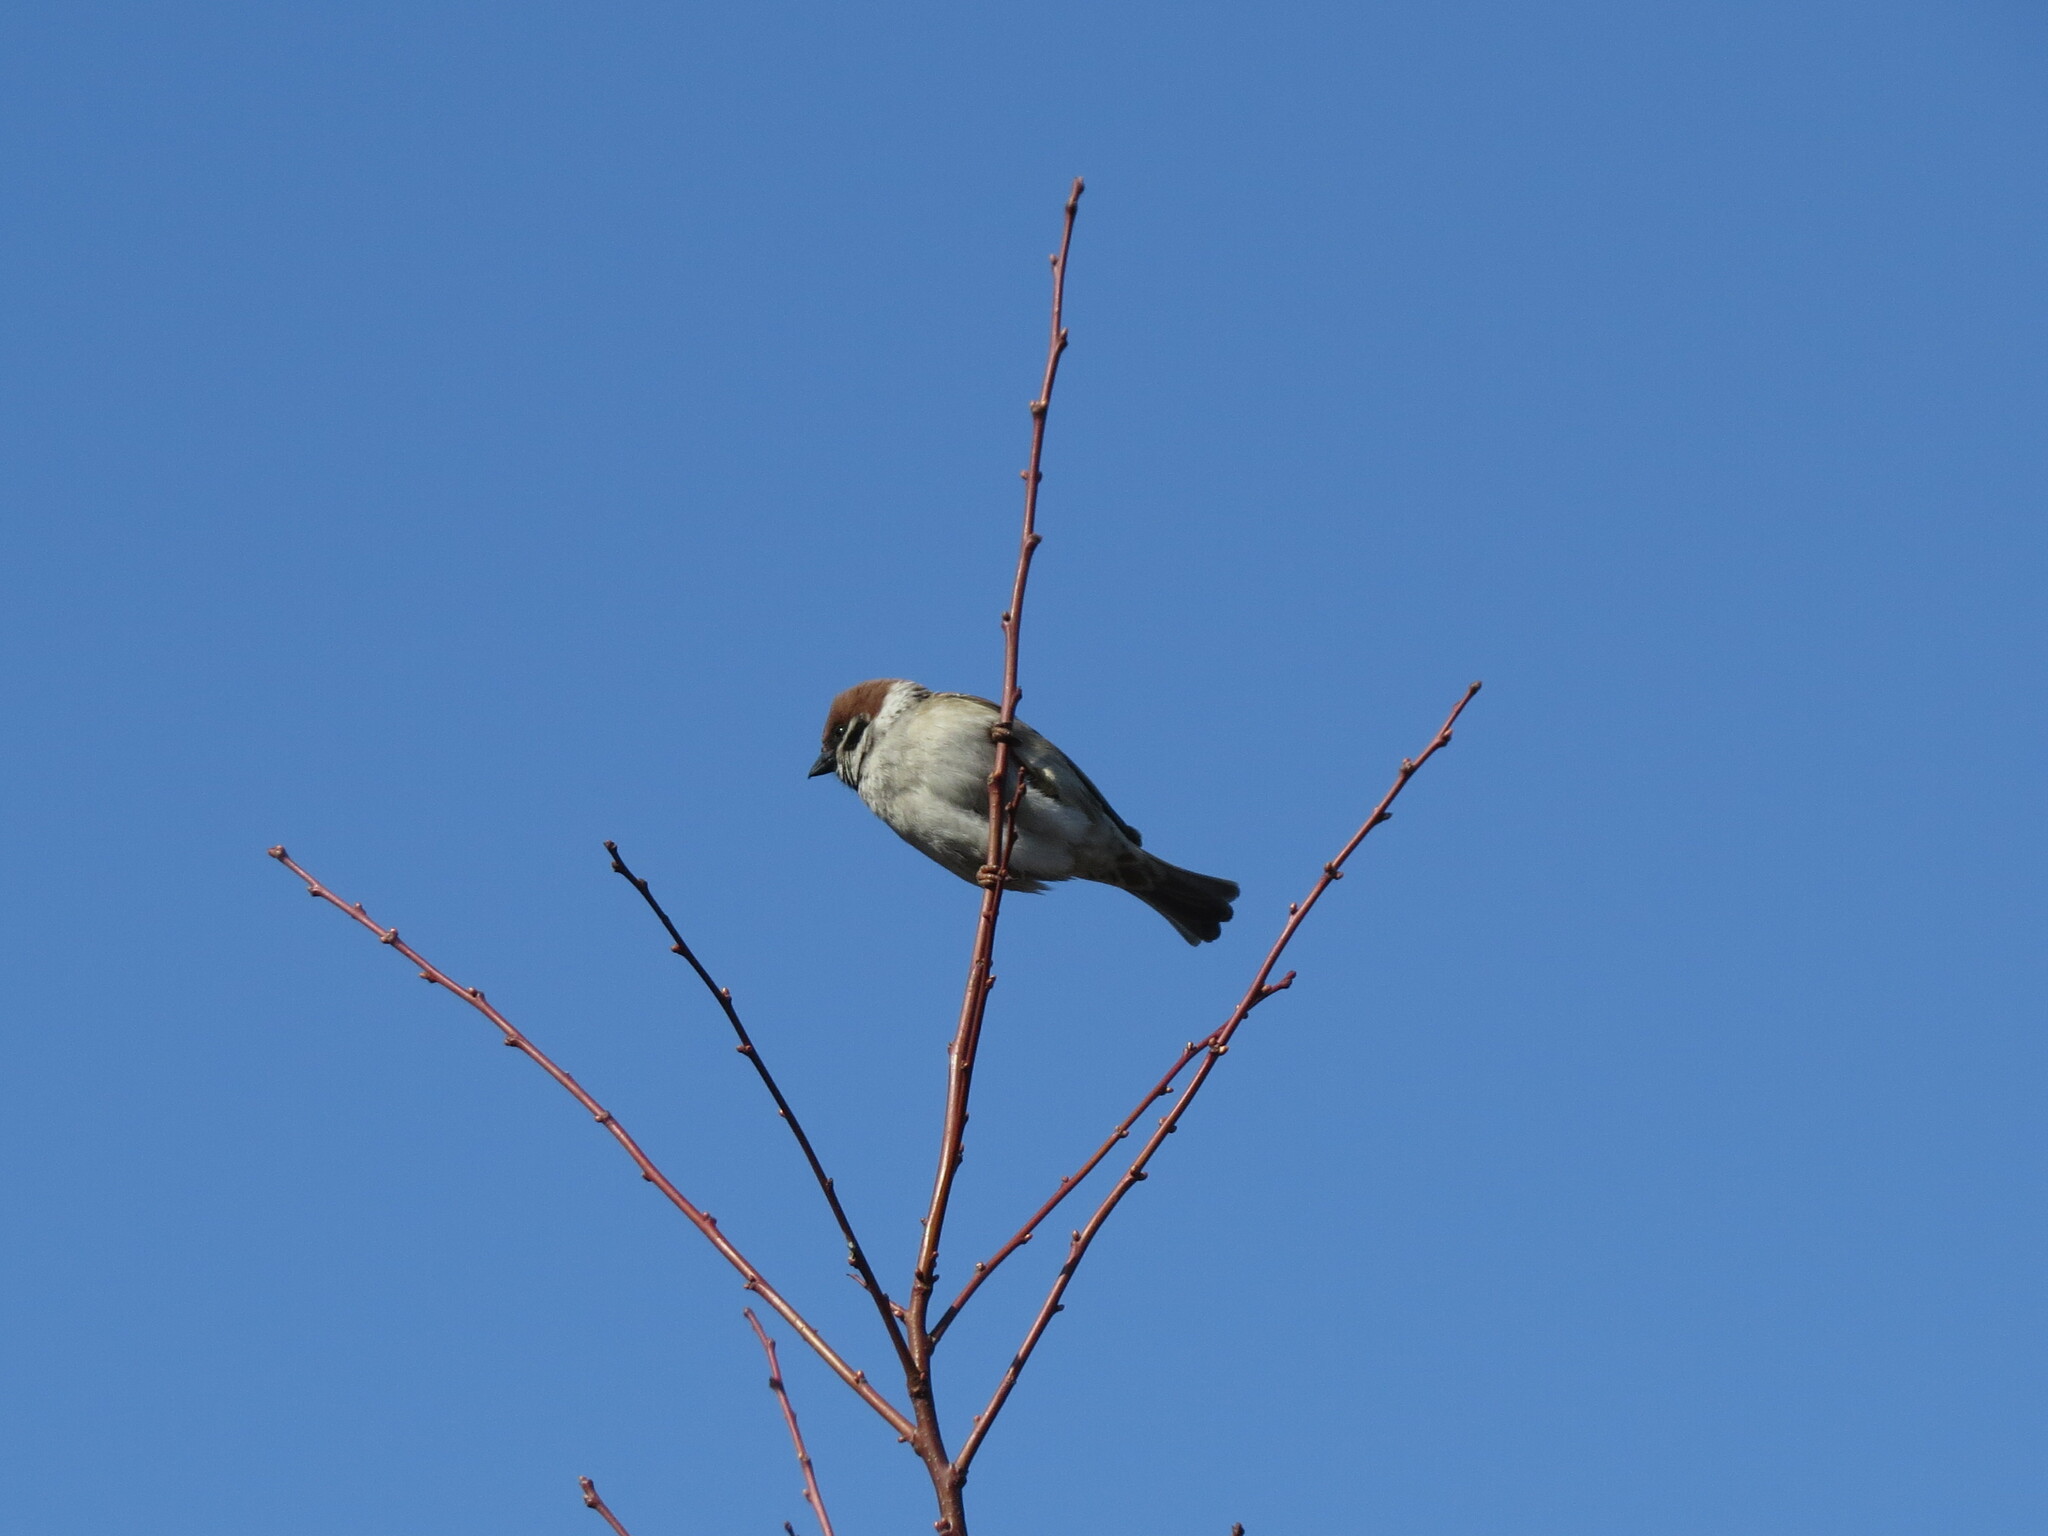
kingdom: Animalia
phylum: Chordata
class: Aves
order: Passeriformes
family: Passeridae
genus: Passer
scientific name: Passer montanus
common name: Eurasian tree sparrow
